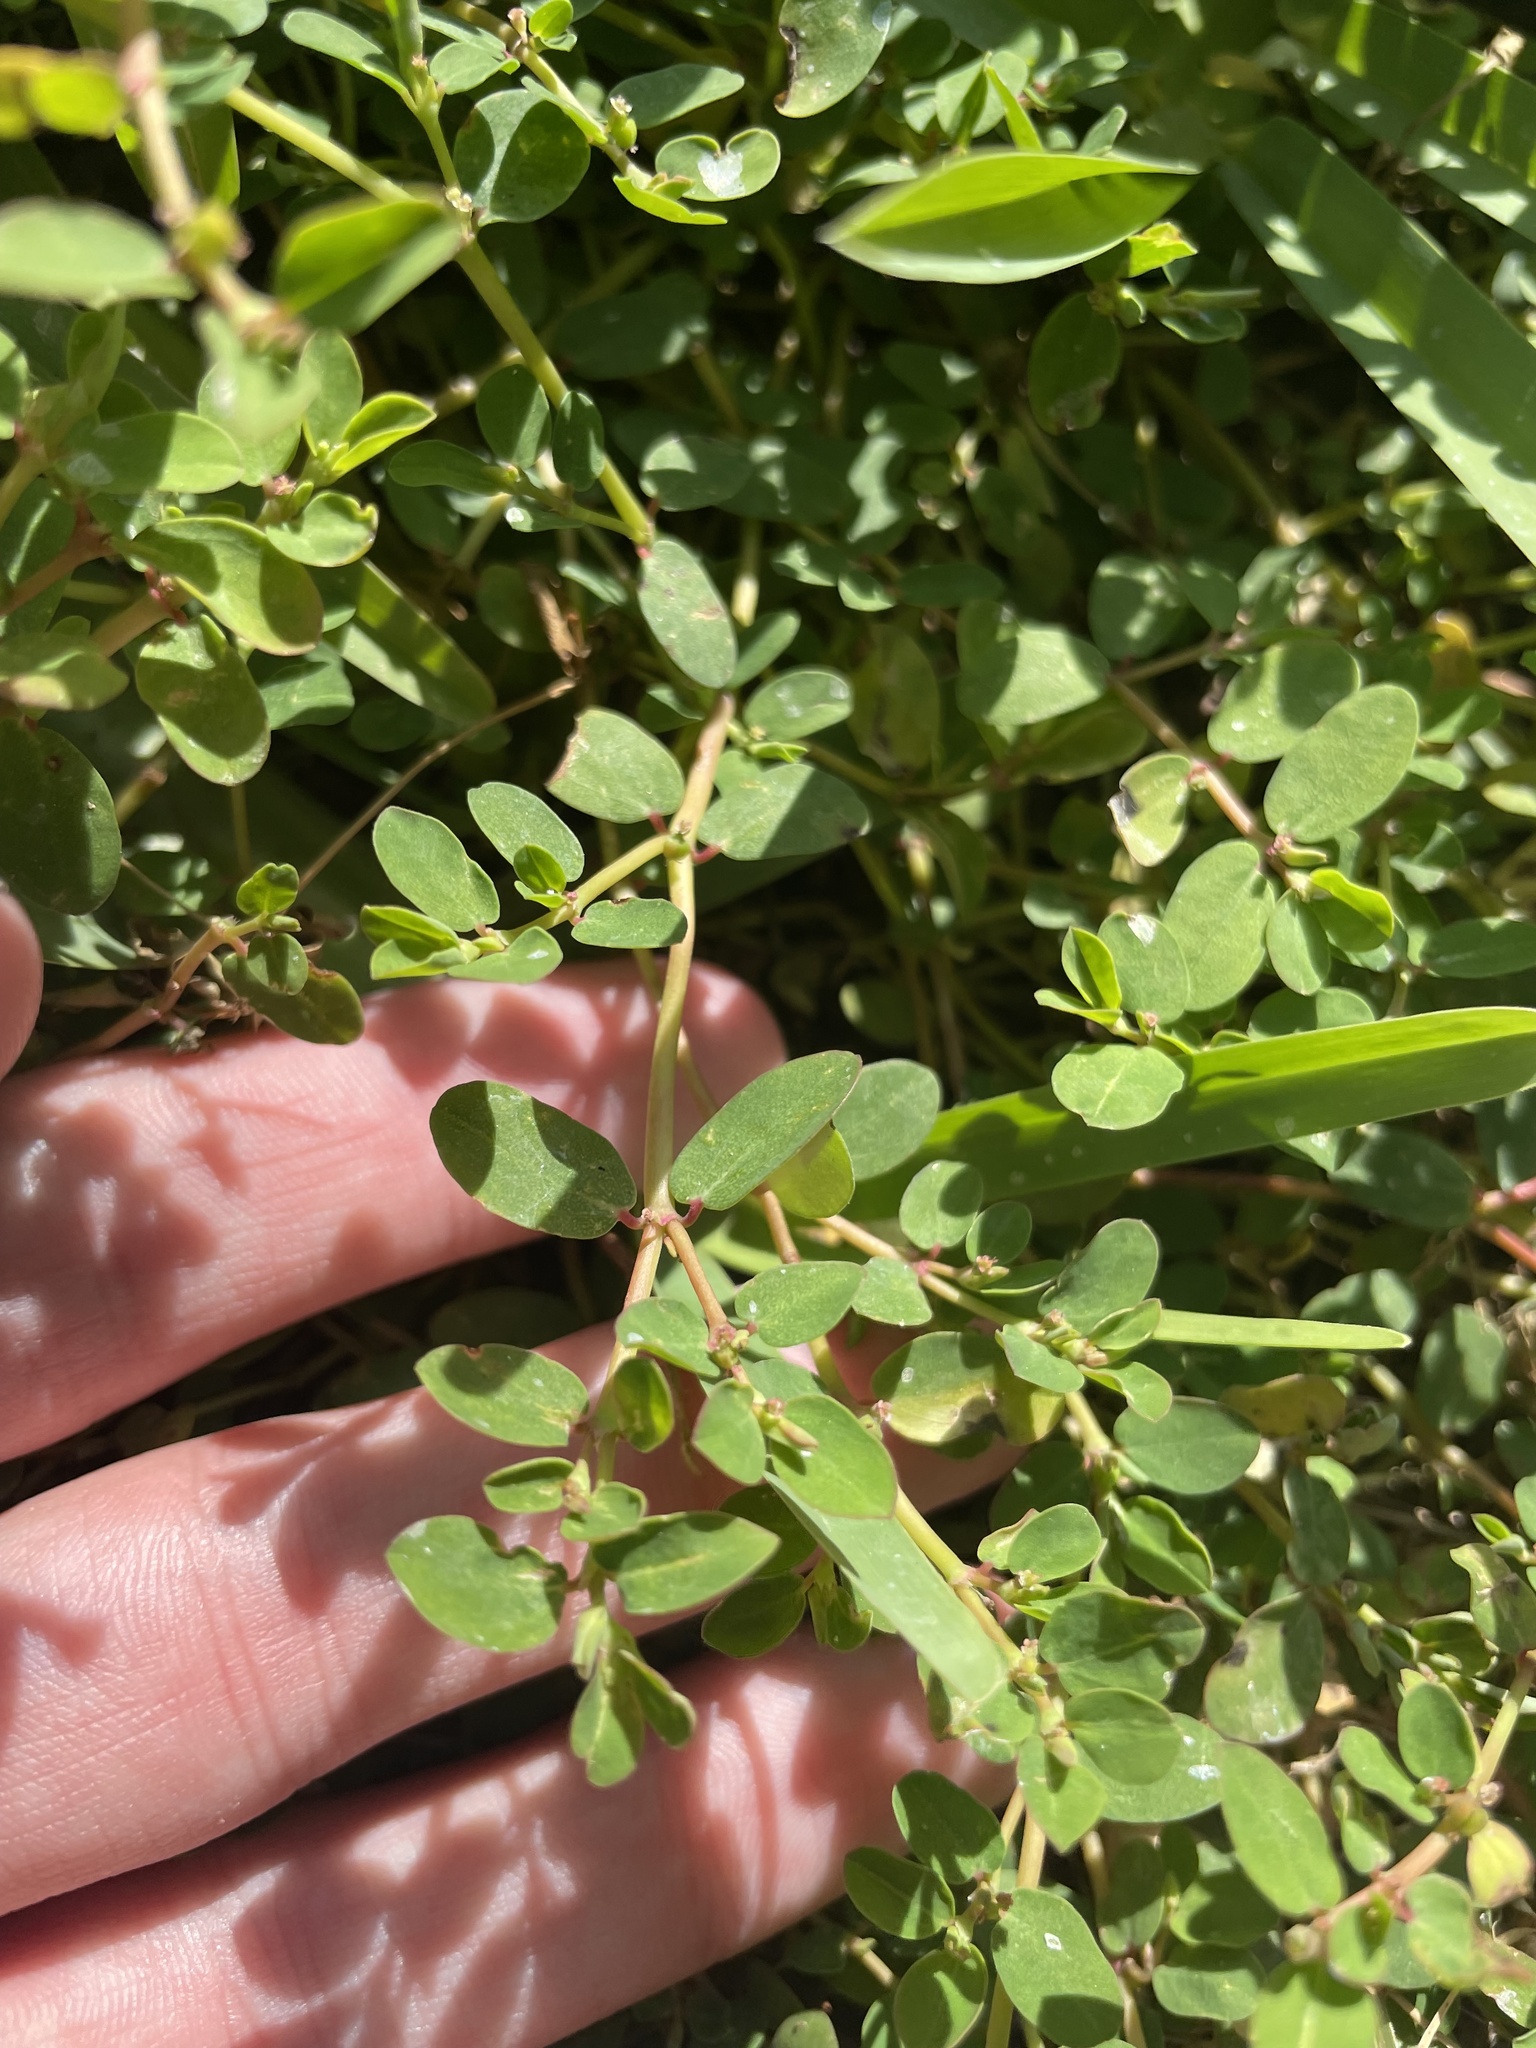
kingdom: Plantae
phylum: Tracheophyta
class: Magnoliopsida
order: Malpighiales
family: Euphorbiaceae
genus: Euphorbia
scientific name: Euphorbia blodgettii
